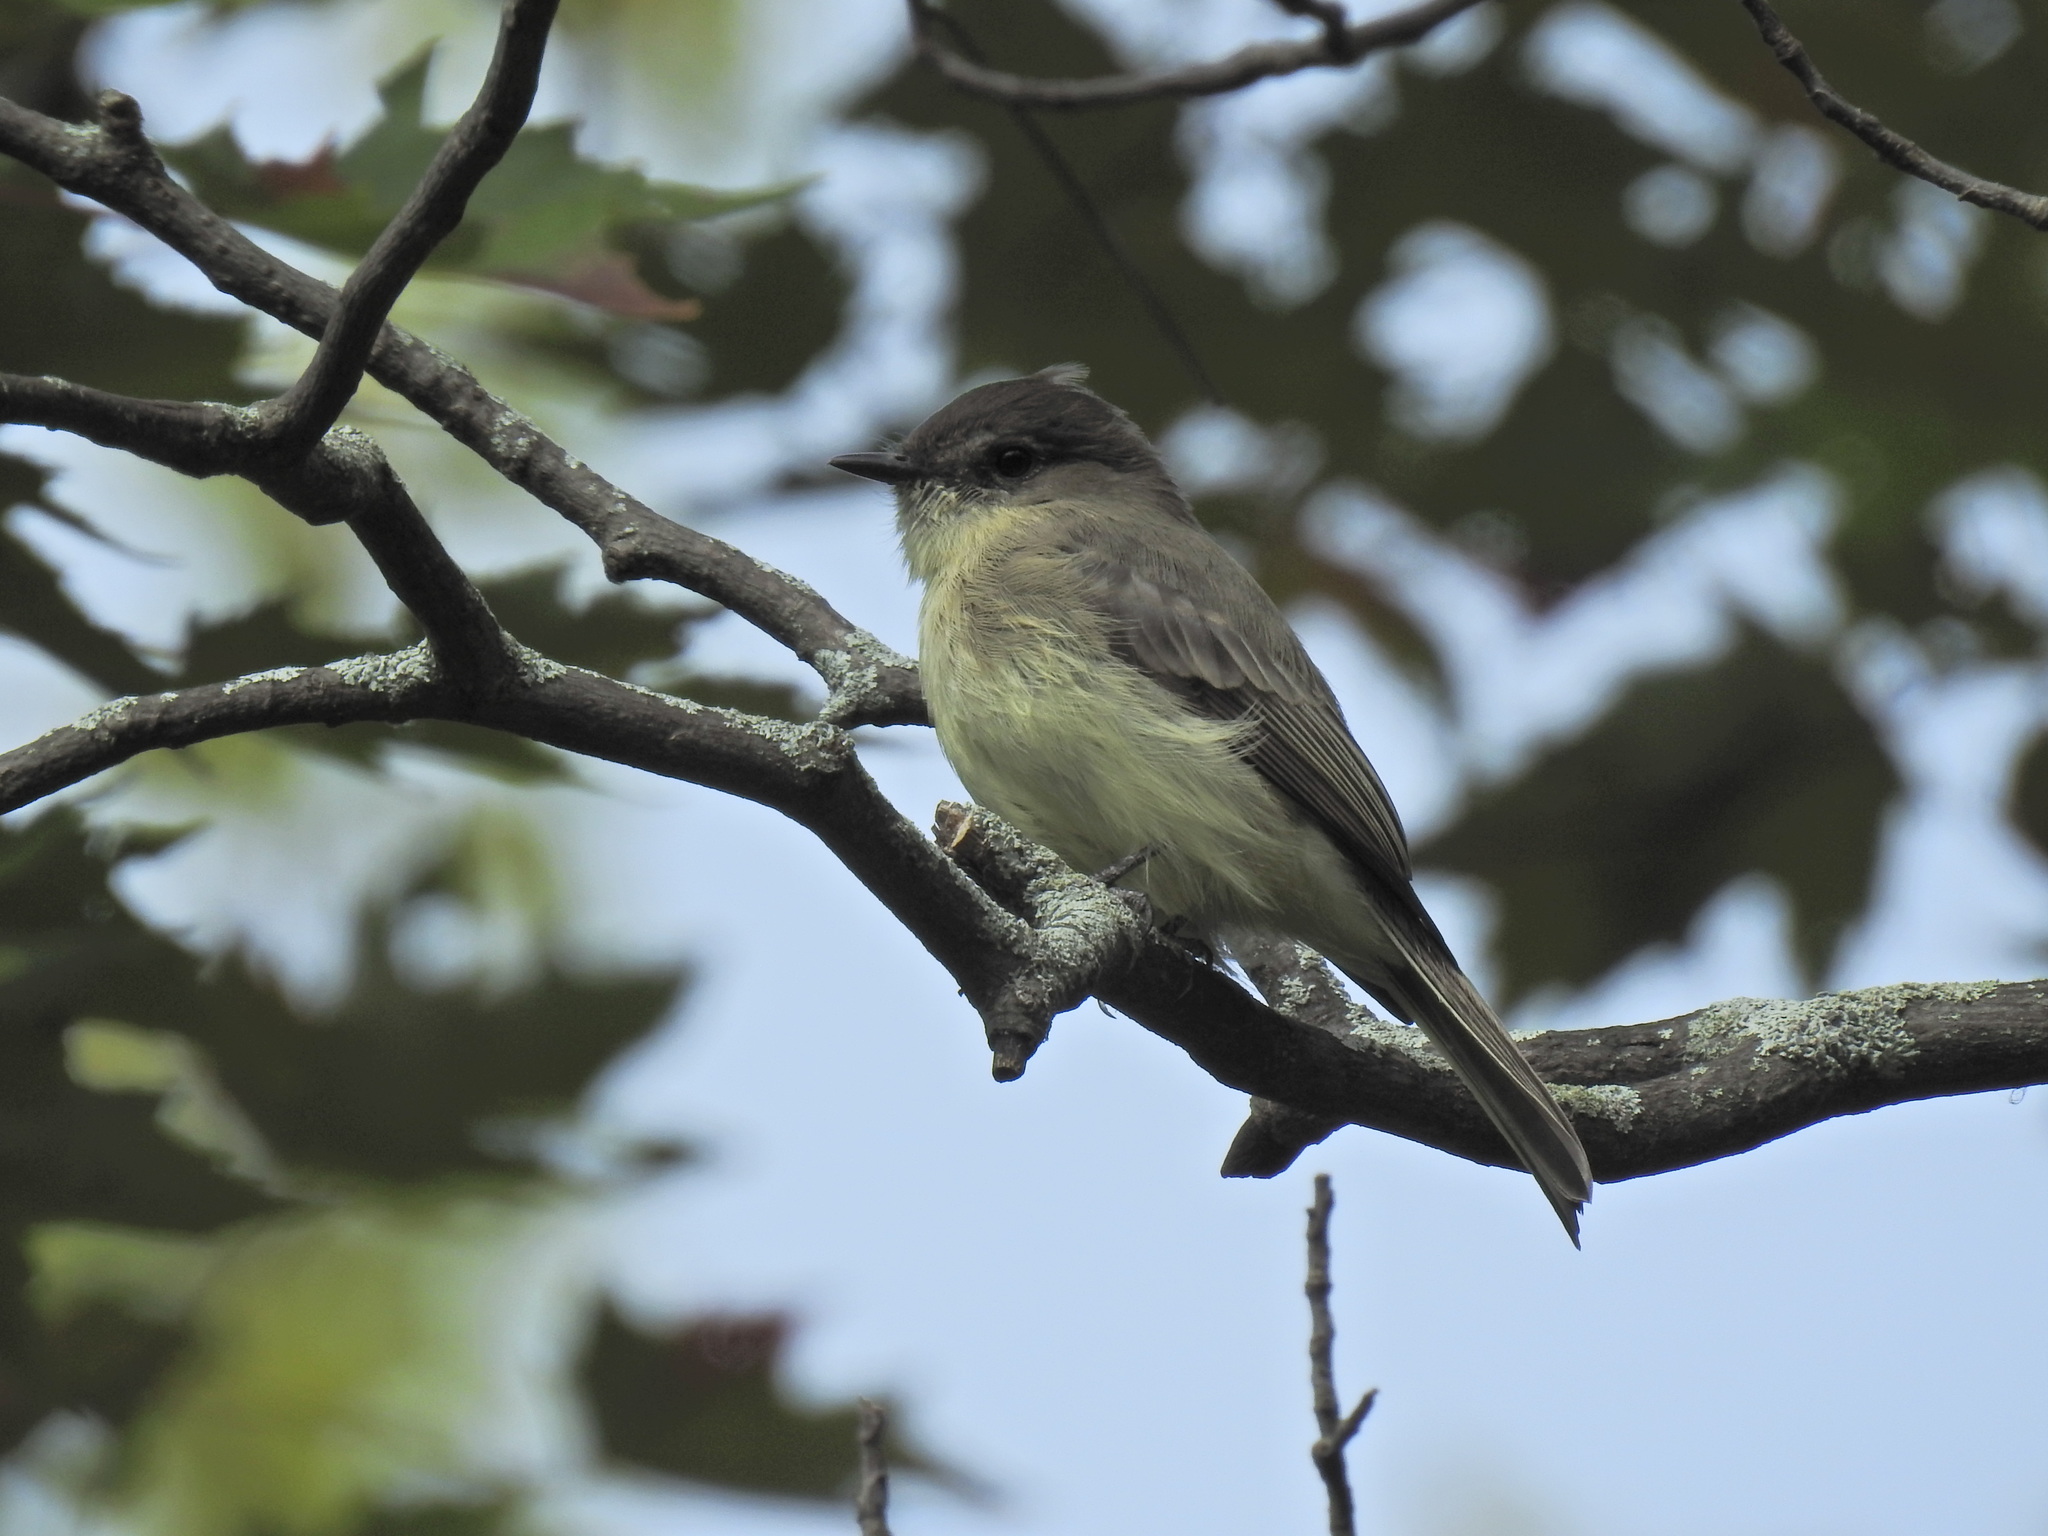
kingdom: Animalia
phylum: Chordata
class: Aves
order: Passeriformes
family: Tyrannidae
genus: Sayornis
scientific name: Sayornis phoebe
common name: Eastern phoebe
